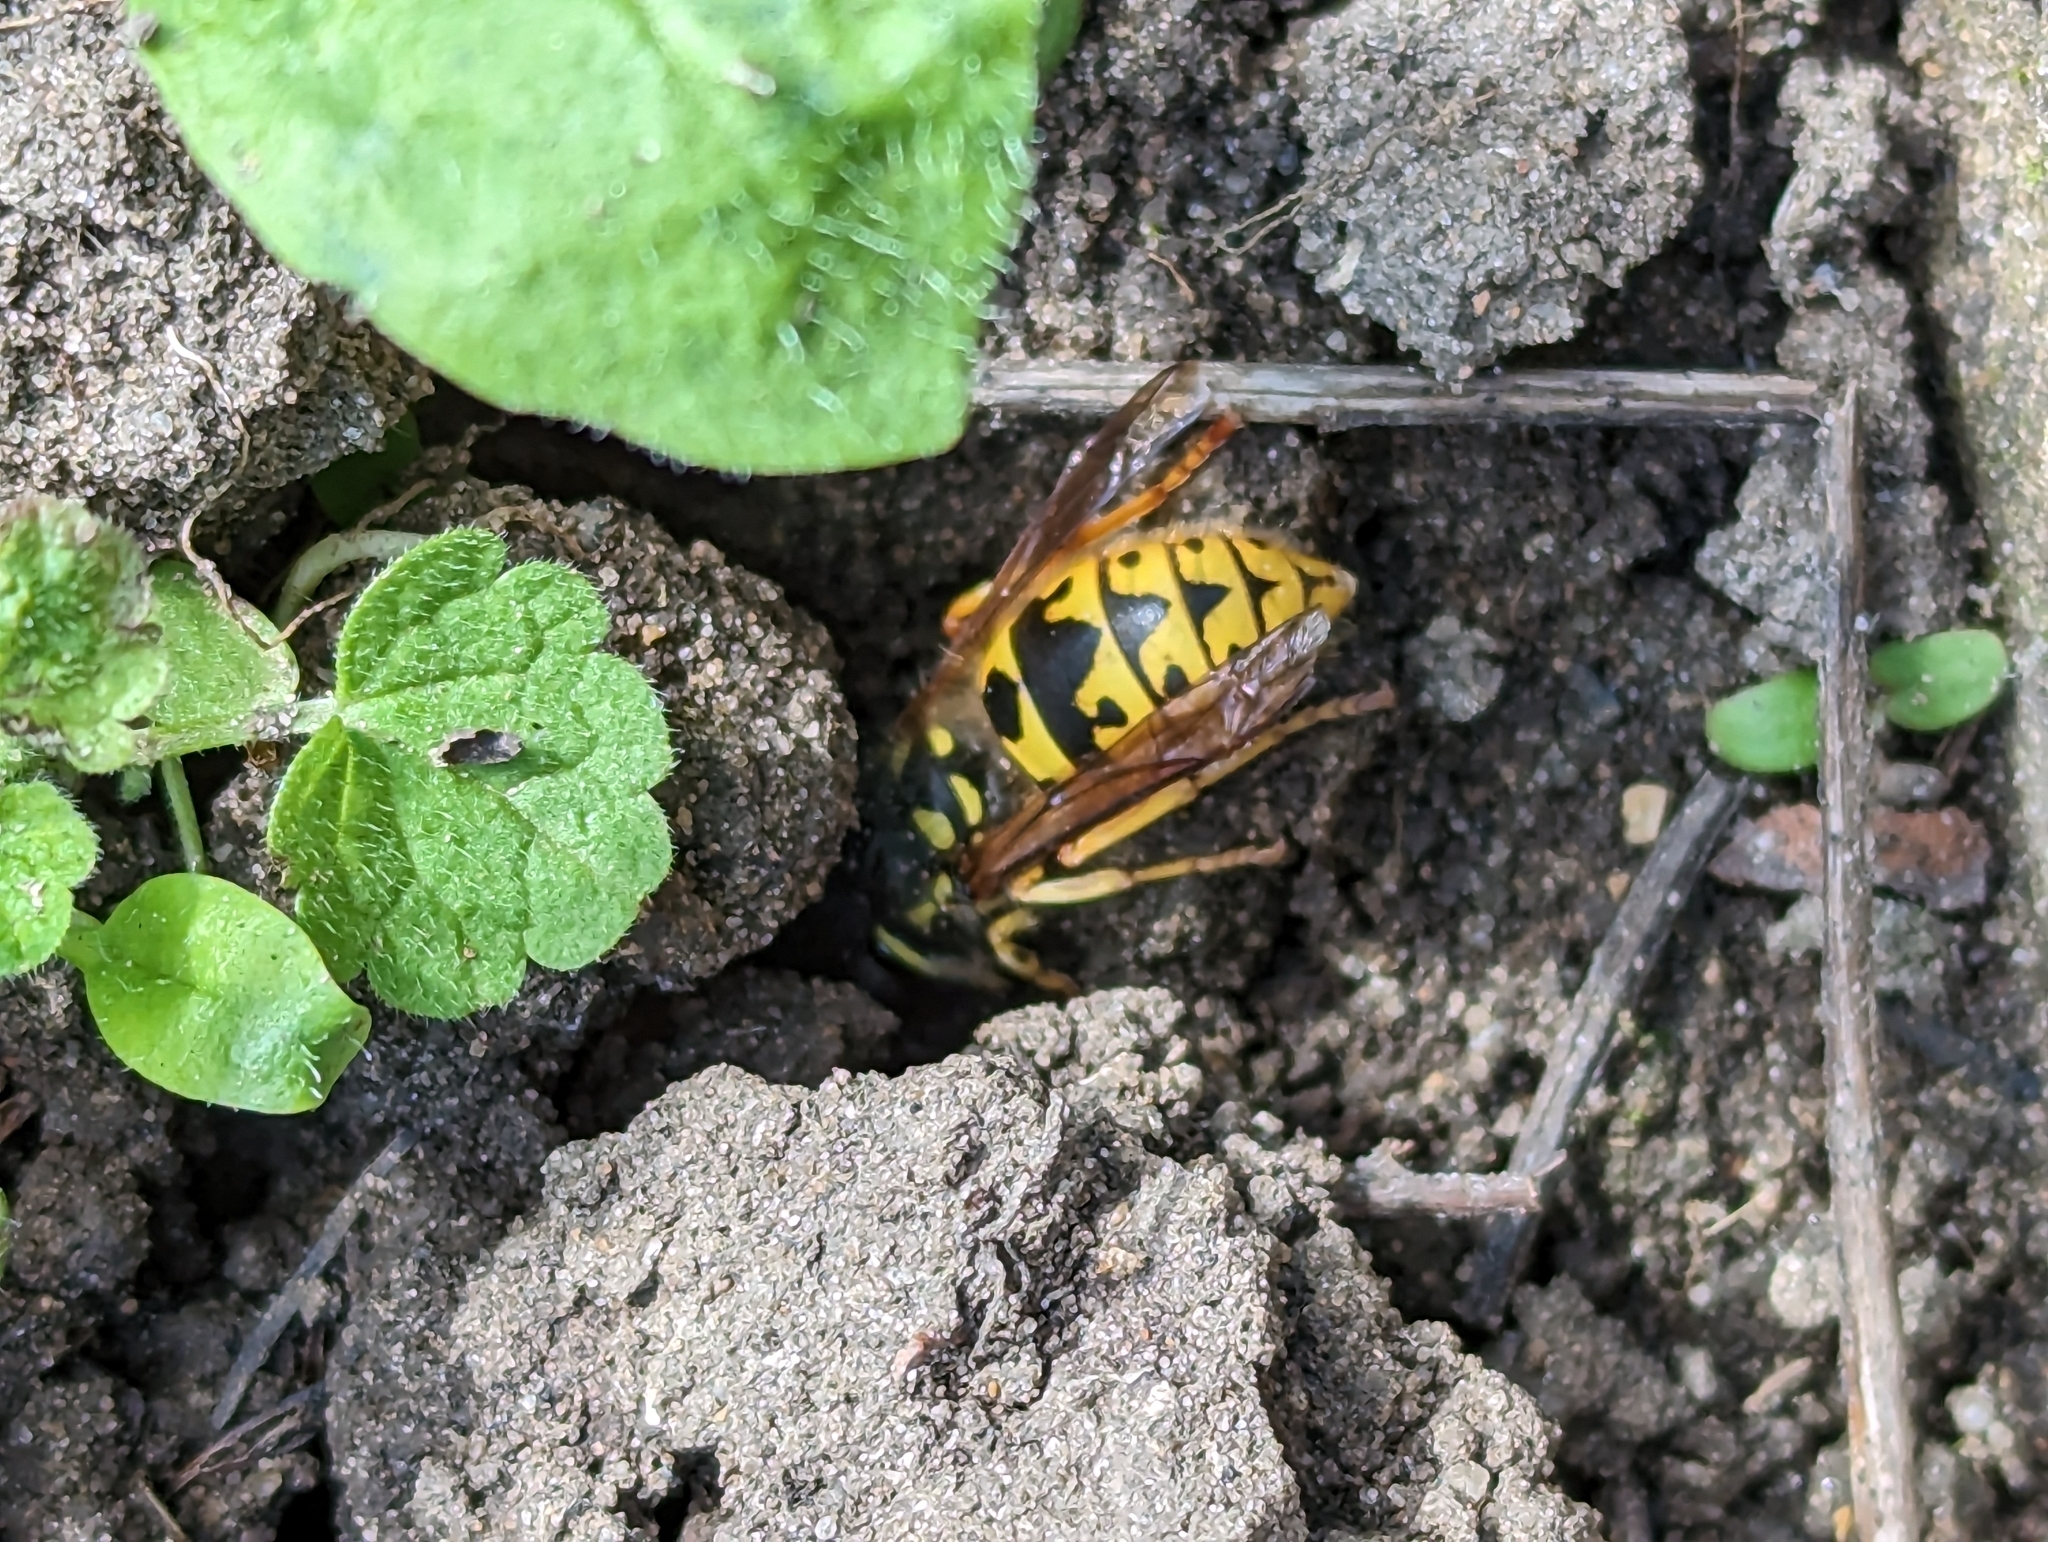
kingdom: Animalia
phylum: Arthropoda
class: Insecta
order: Hymenoptera
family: Vespidae
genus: Vespula
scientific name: Vespula germanica
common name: German wasp
